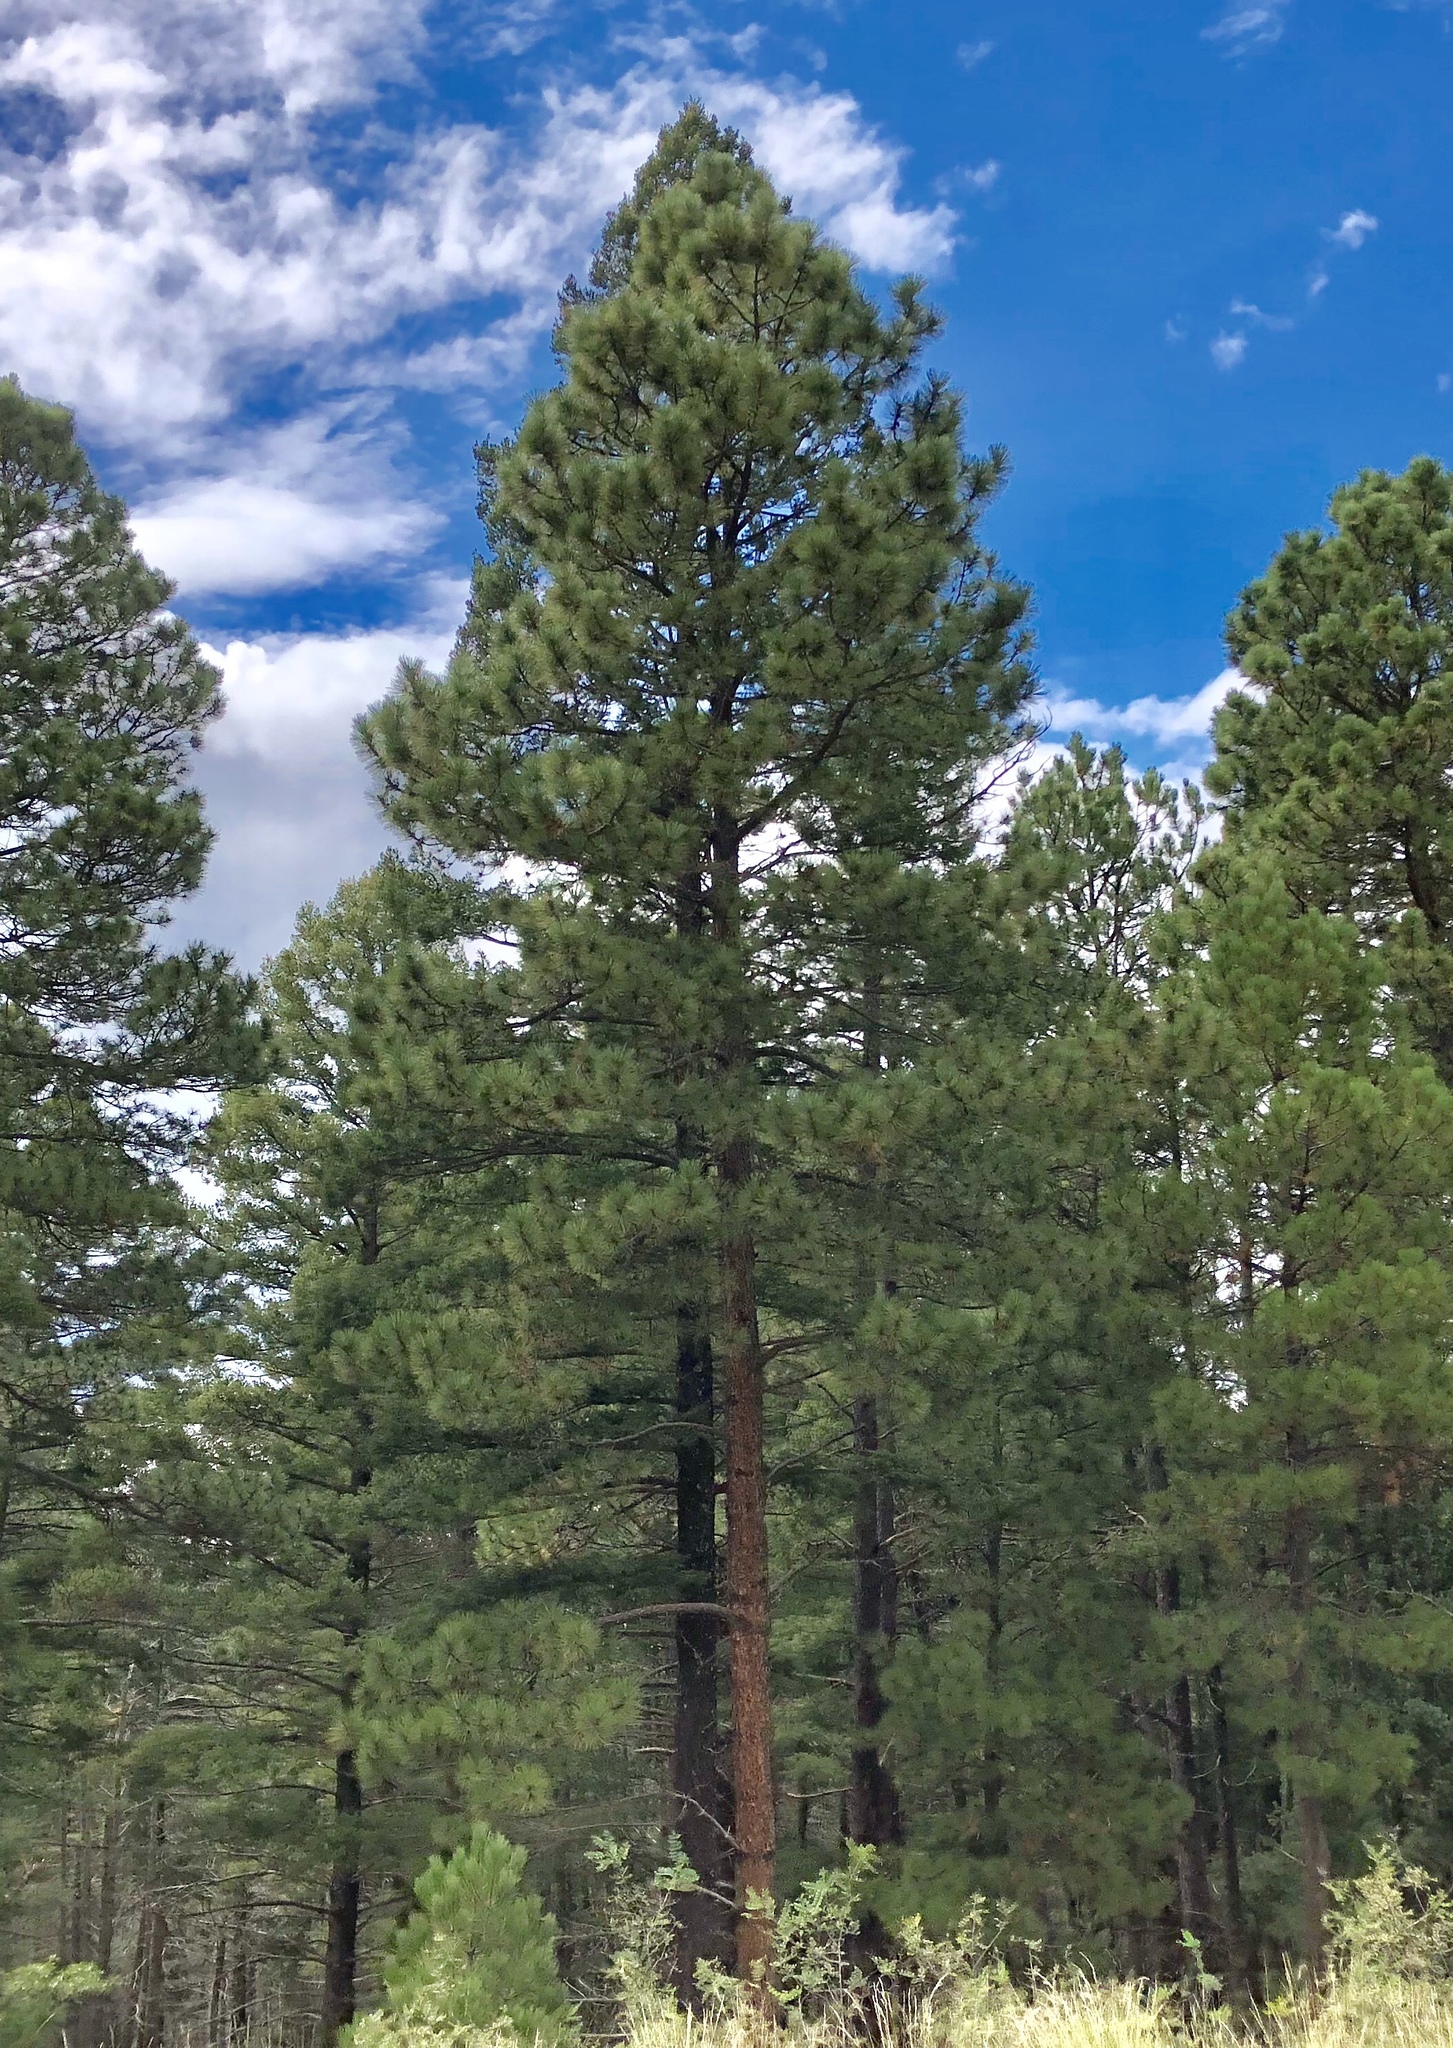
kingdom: Plantae
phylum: Tracheophyta
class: Pinopsida
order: Pinales
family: Pinaceae
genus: Pinus
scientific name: Pinus ponderosa
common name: Western yellow-pine
